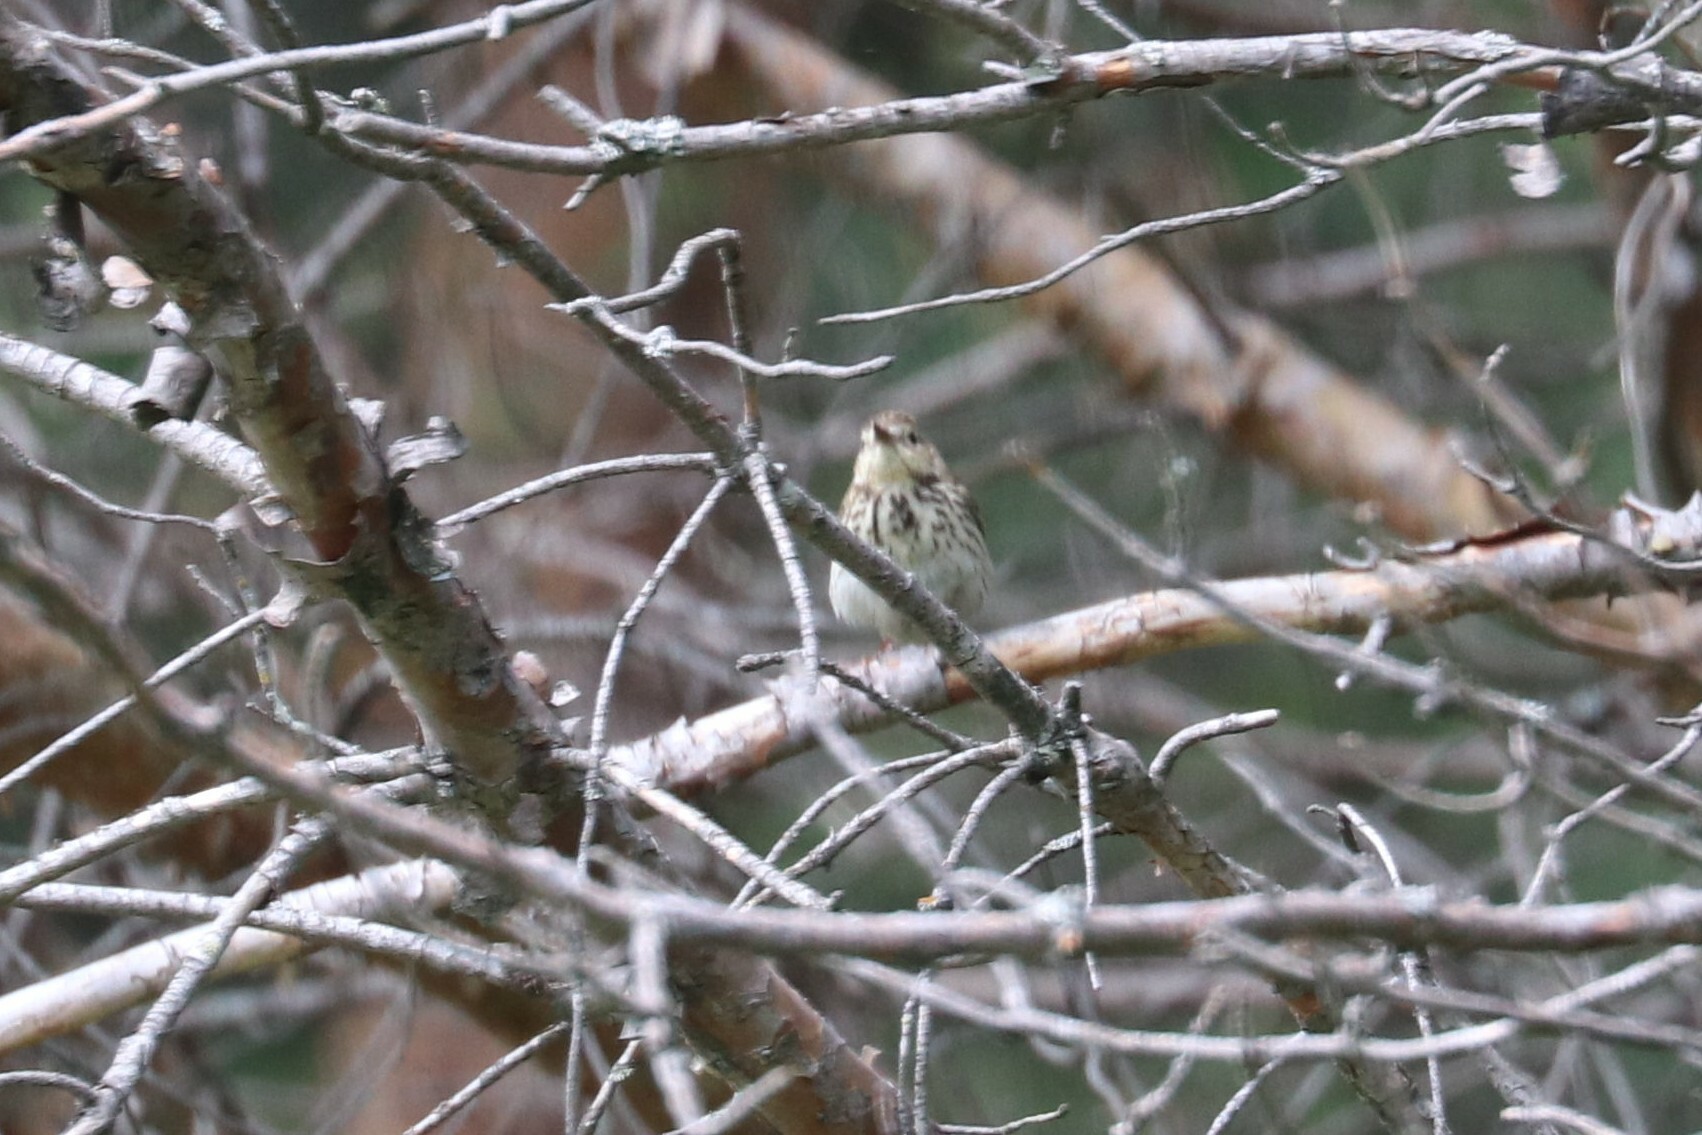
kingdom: Animalia
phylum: Chordata
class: Aves
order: Passeriformes
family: Motacillidae
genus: Anthus
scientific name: Anthus trivialis
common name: Tree pipit
